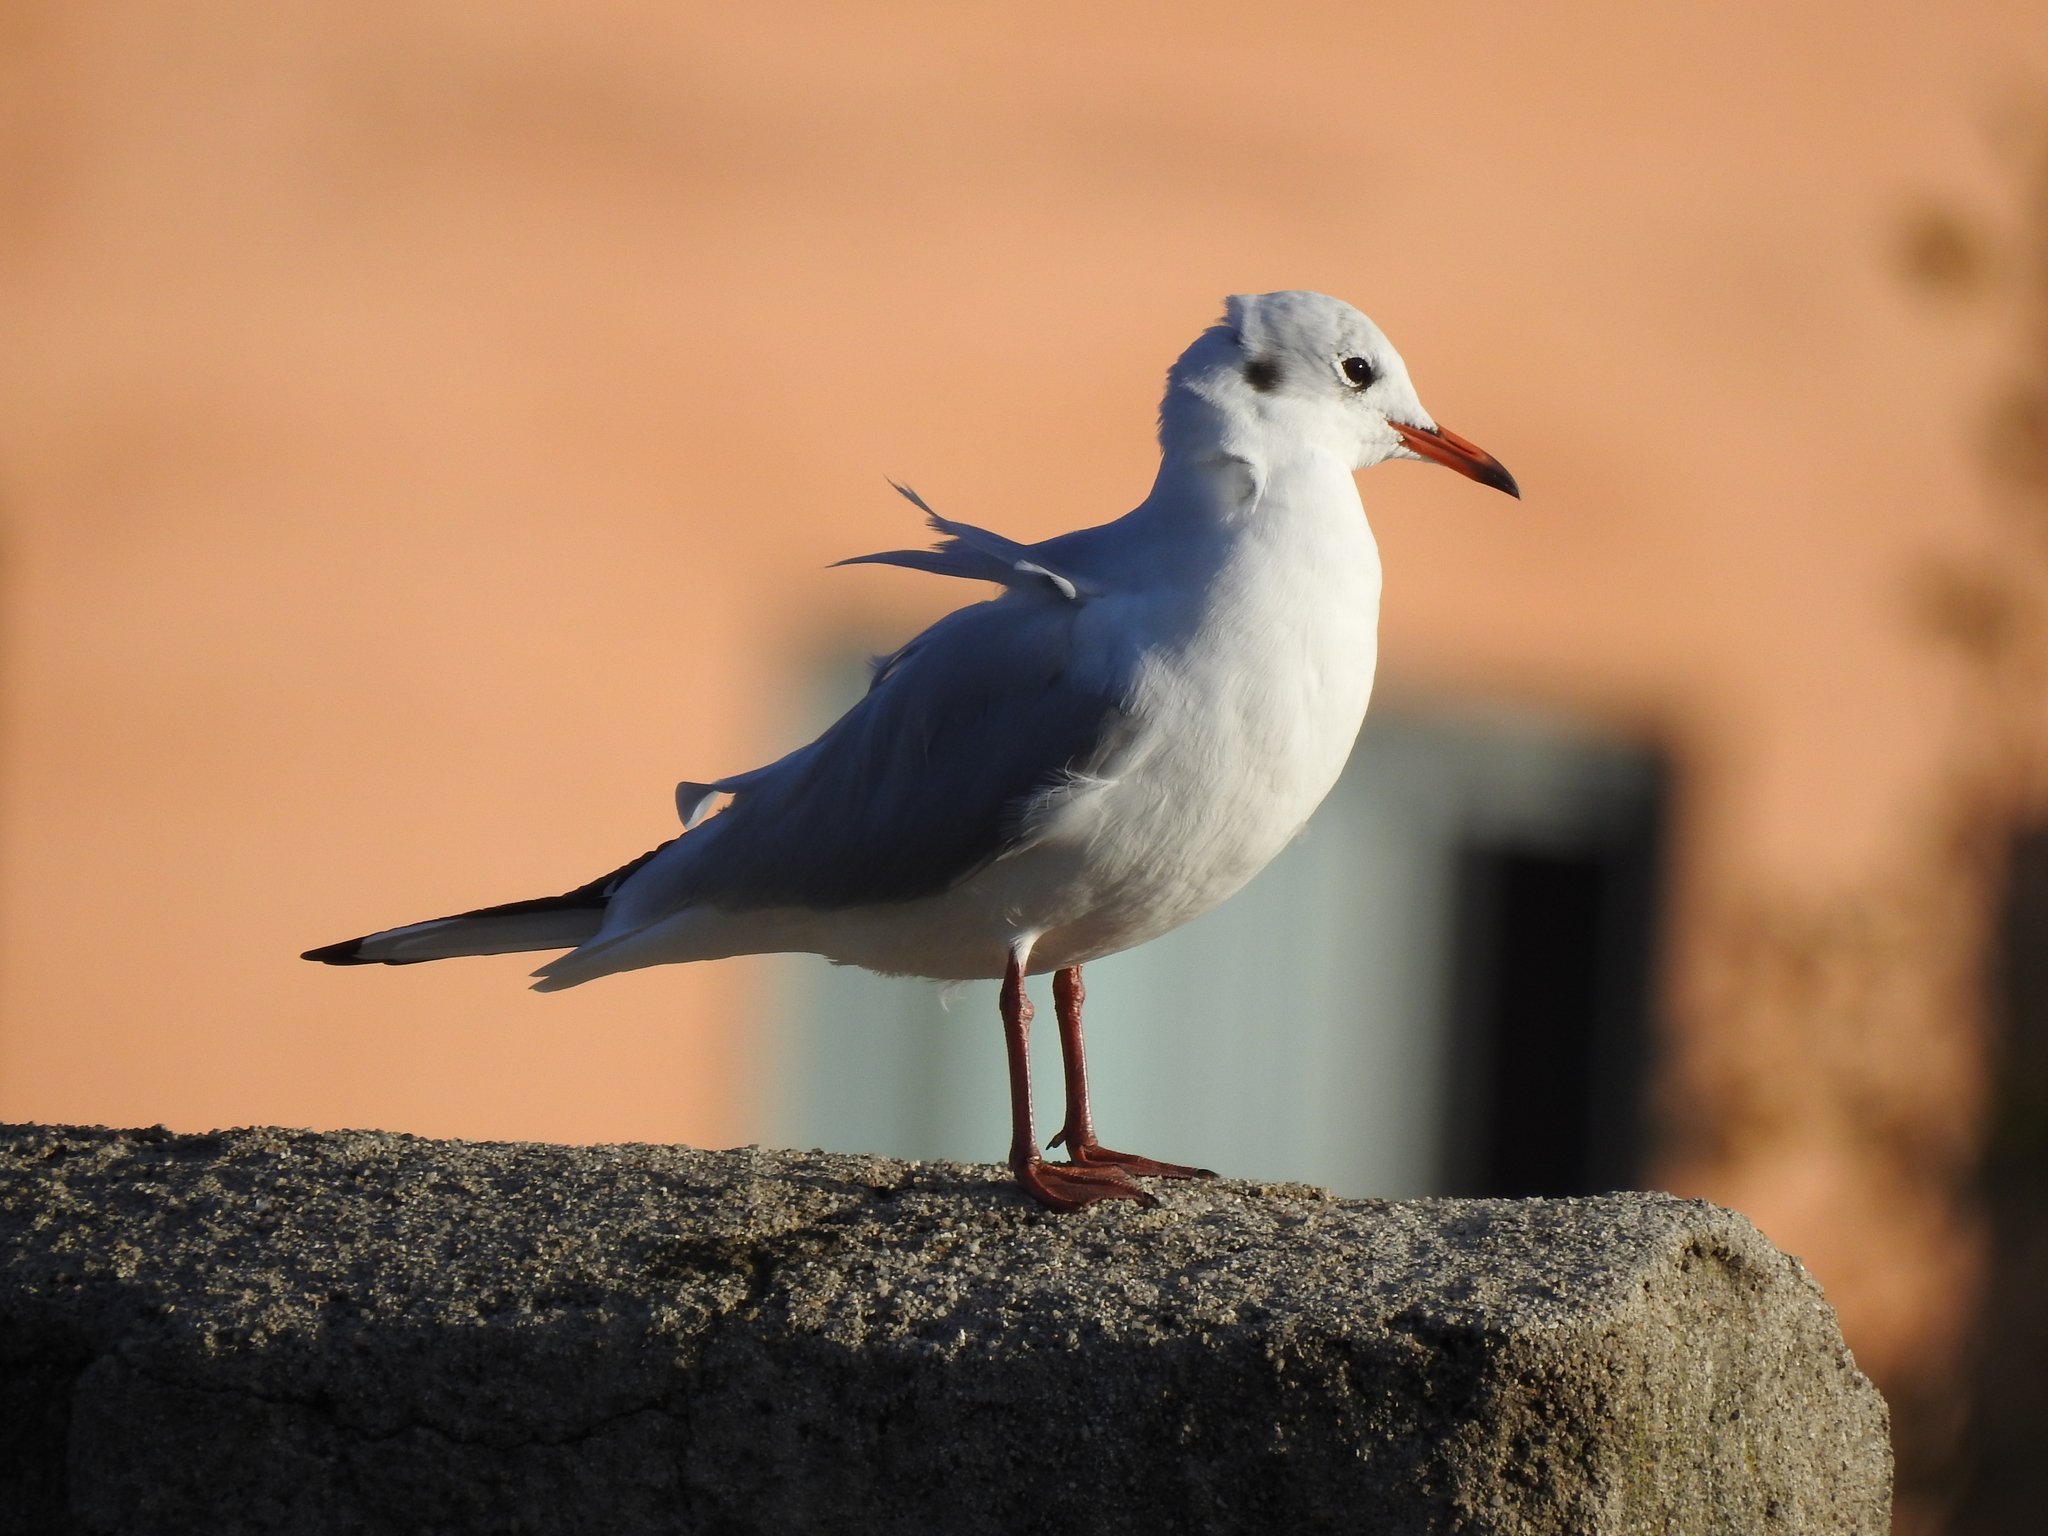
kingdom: Animalia
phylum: Chordata
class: Aves
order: Charadriiformes
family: Laridae
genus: Chroicocephalus
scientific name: Chroicocephalus ridibundus
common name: Black-headed gull
